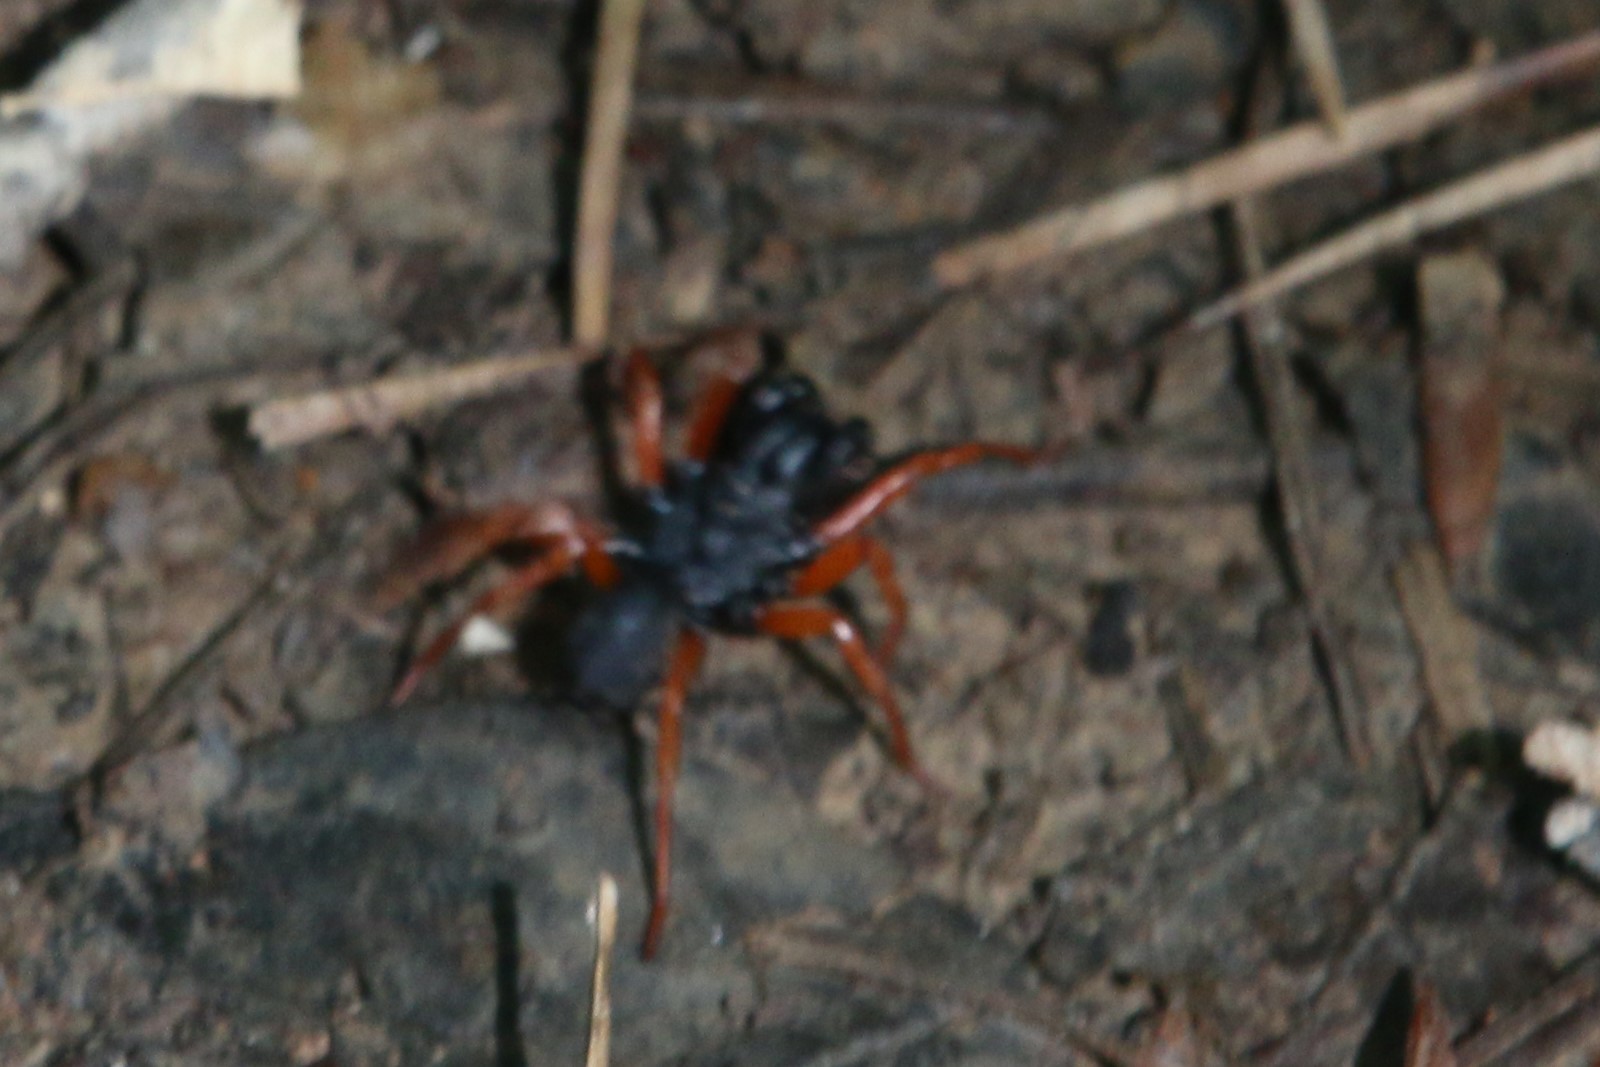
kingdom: Animalia
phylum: Arthropoda
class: Arachnida
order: Araneae
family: Atypidae
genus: Sphodros
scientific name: Sphodros rufipes
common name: Red-legged purseweb spider
